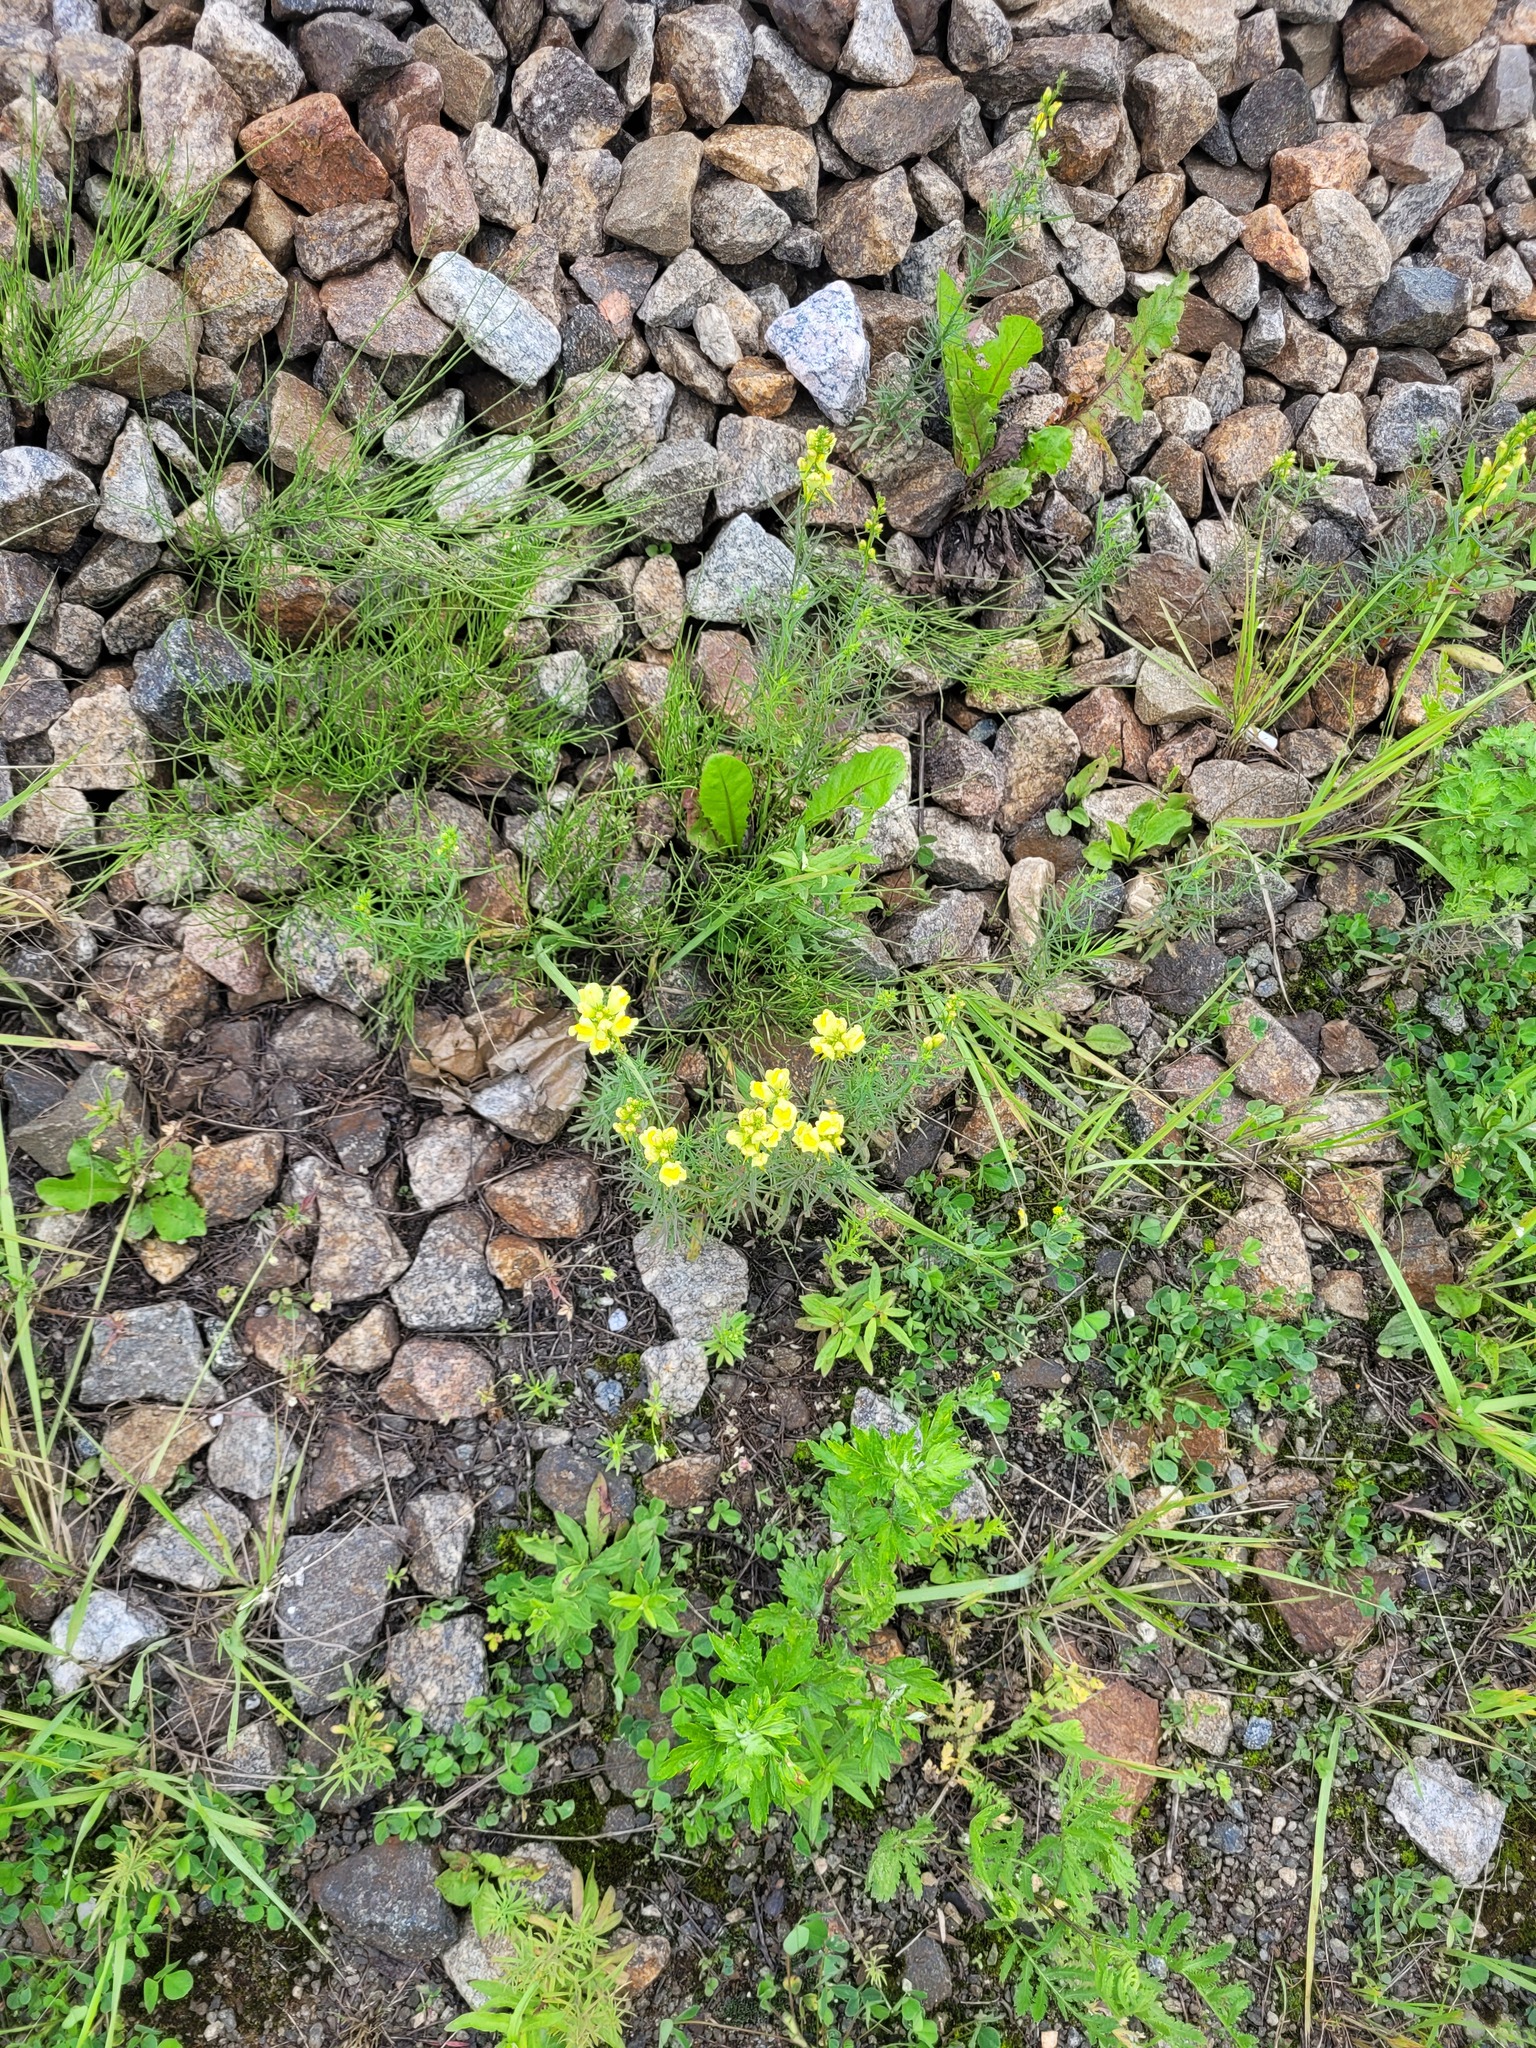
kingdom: Plantae
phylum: Tracheophyta
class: Magnoliopsida
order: Lamiales
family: Plantaginaceae
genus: Linaria
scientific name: Linaria vulgaris
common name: Butter and eggs
